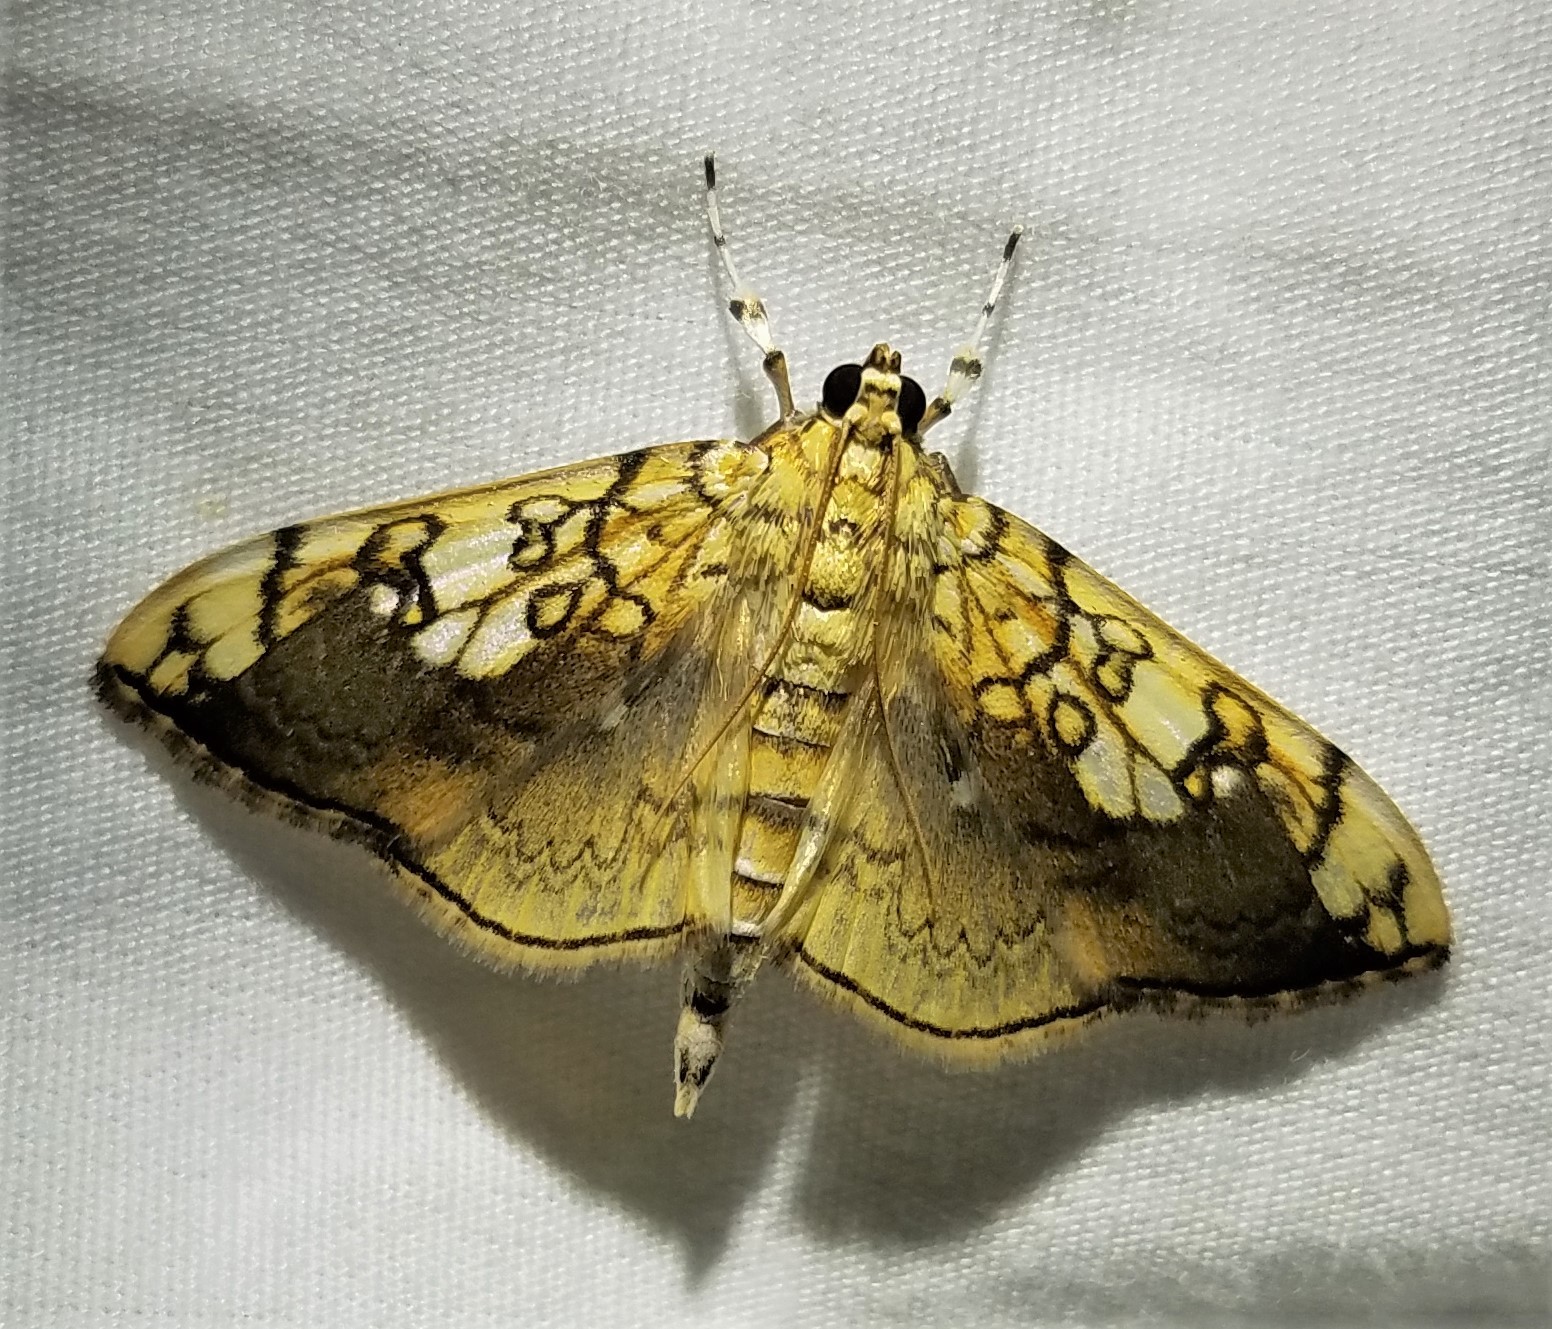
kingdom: Animalia
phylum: Arthropoda
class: Insecta
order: Lepidoptera
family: Crambidae
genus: Pantographa
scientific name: Pantographa limata
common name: Basswood leafroller moth
